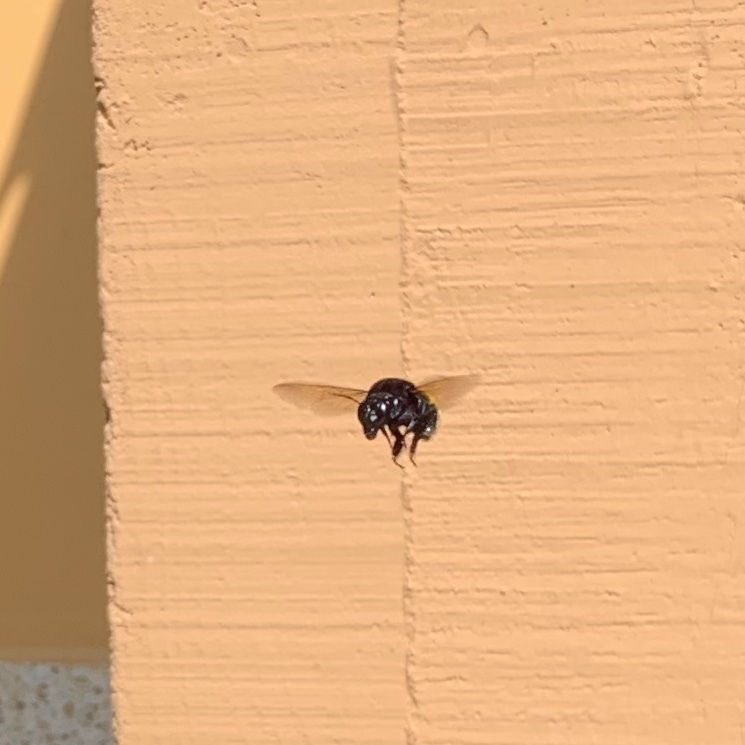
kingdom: Animalia
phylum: Arthropoda
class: Insecta
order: Hymenoptera
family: Apidae
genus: Eulaema
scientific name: Eulaema polychroma
